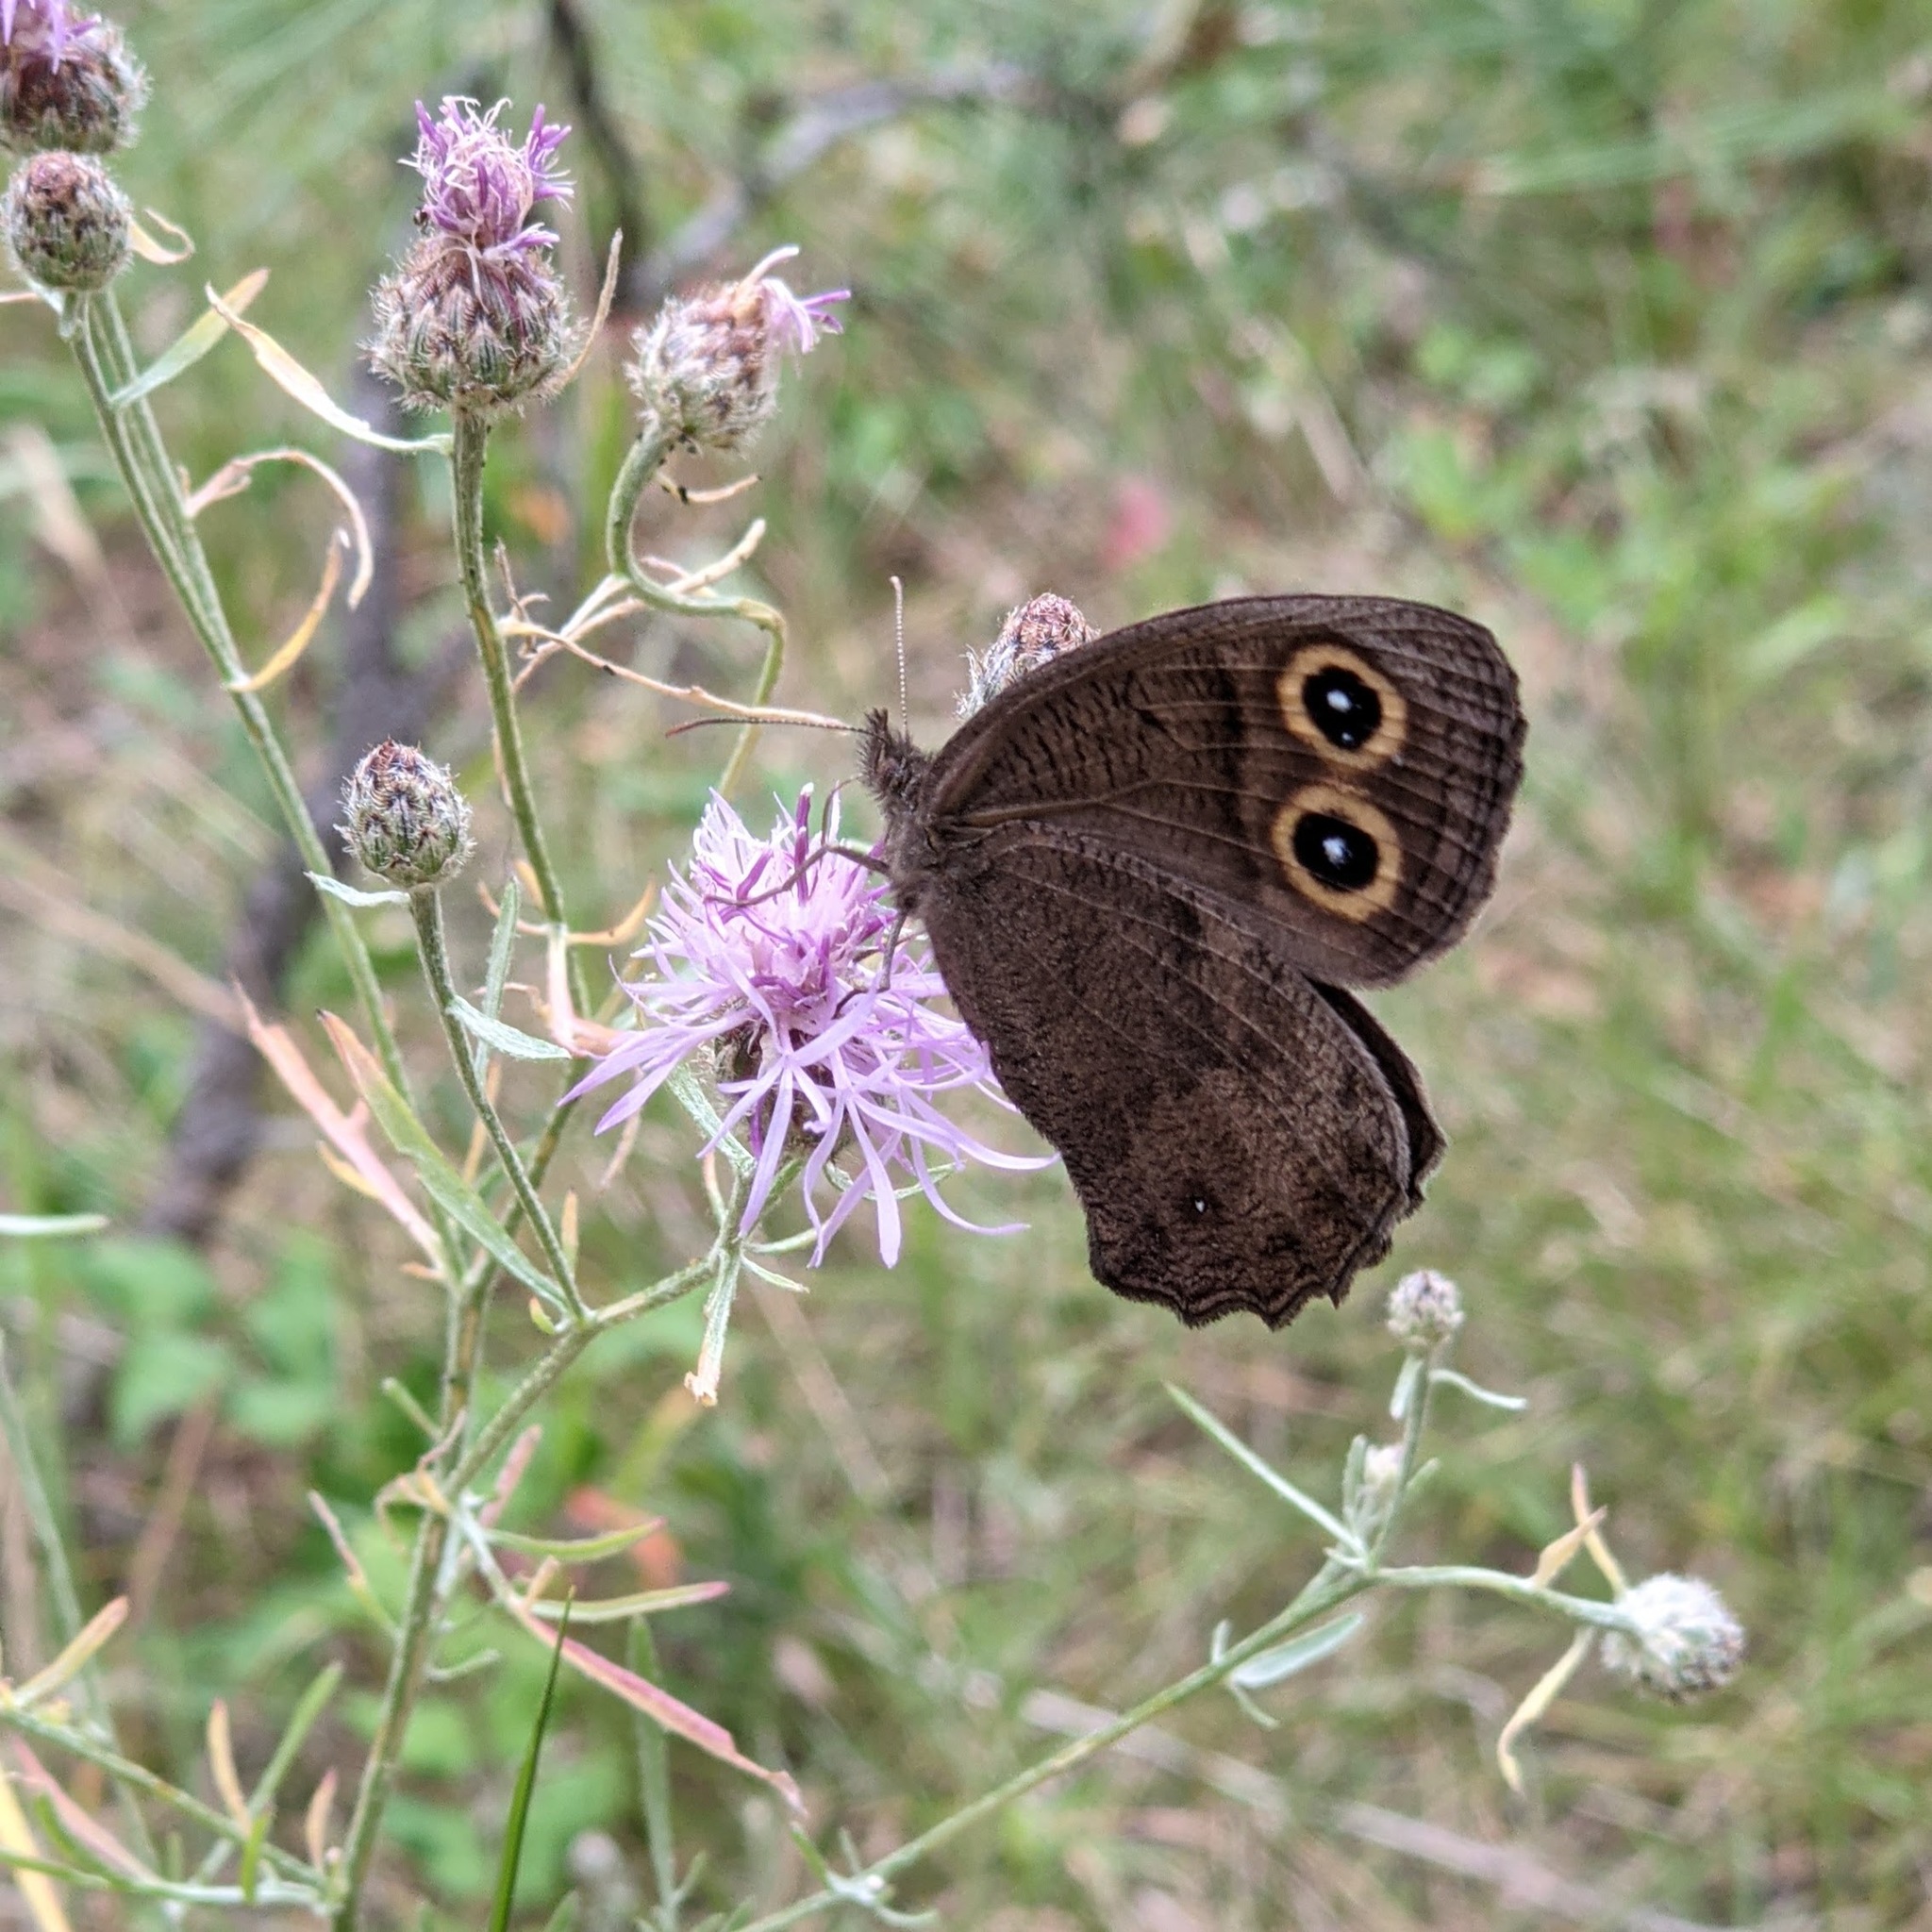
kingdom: Animalia
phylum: Arthropoda
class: Insecta
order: Lepidoptera
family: Nymphalidae
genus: Cercyonis
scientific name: Cercyonis pegala
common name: Common wood-nymph
